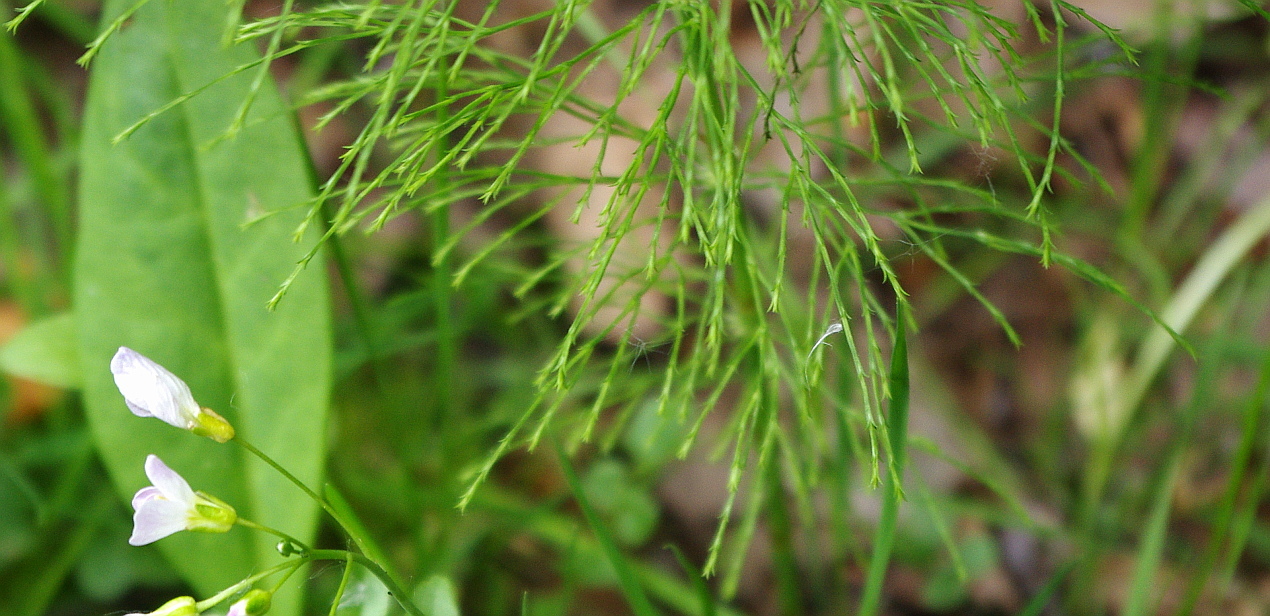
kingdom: Plantae
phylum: Tracheophyta
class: Polypodiopsida
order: Equisetales
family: Equisetaceae
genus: Equisetum
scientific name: Equisetum sylvaticum
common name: Wood horsetail
